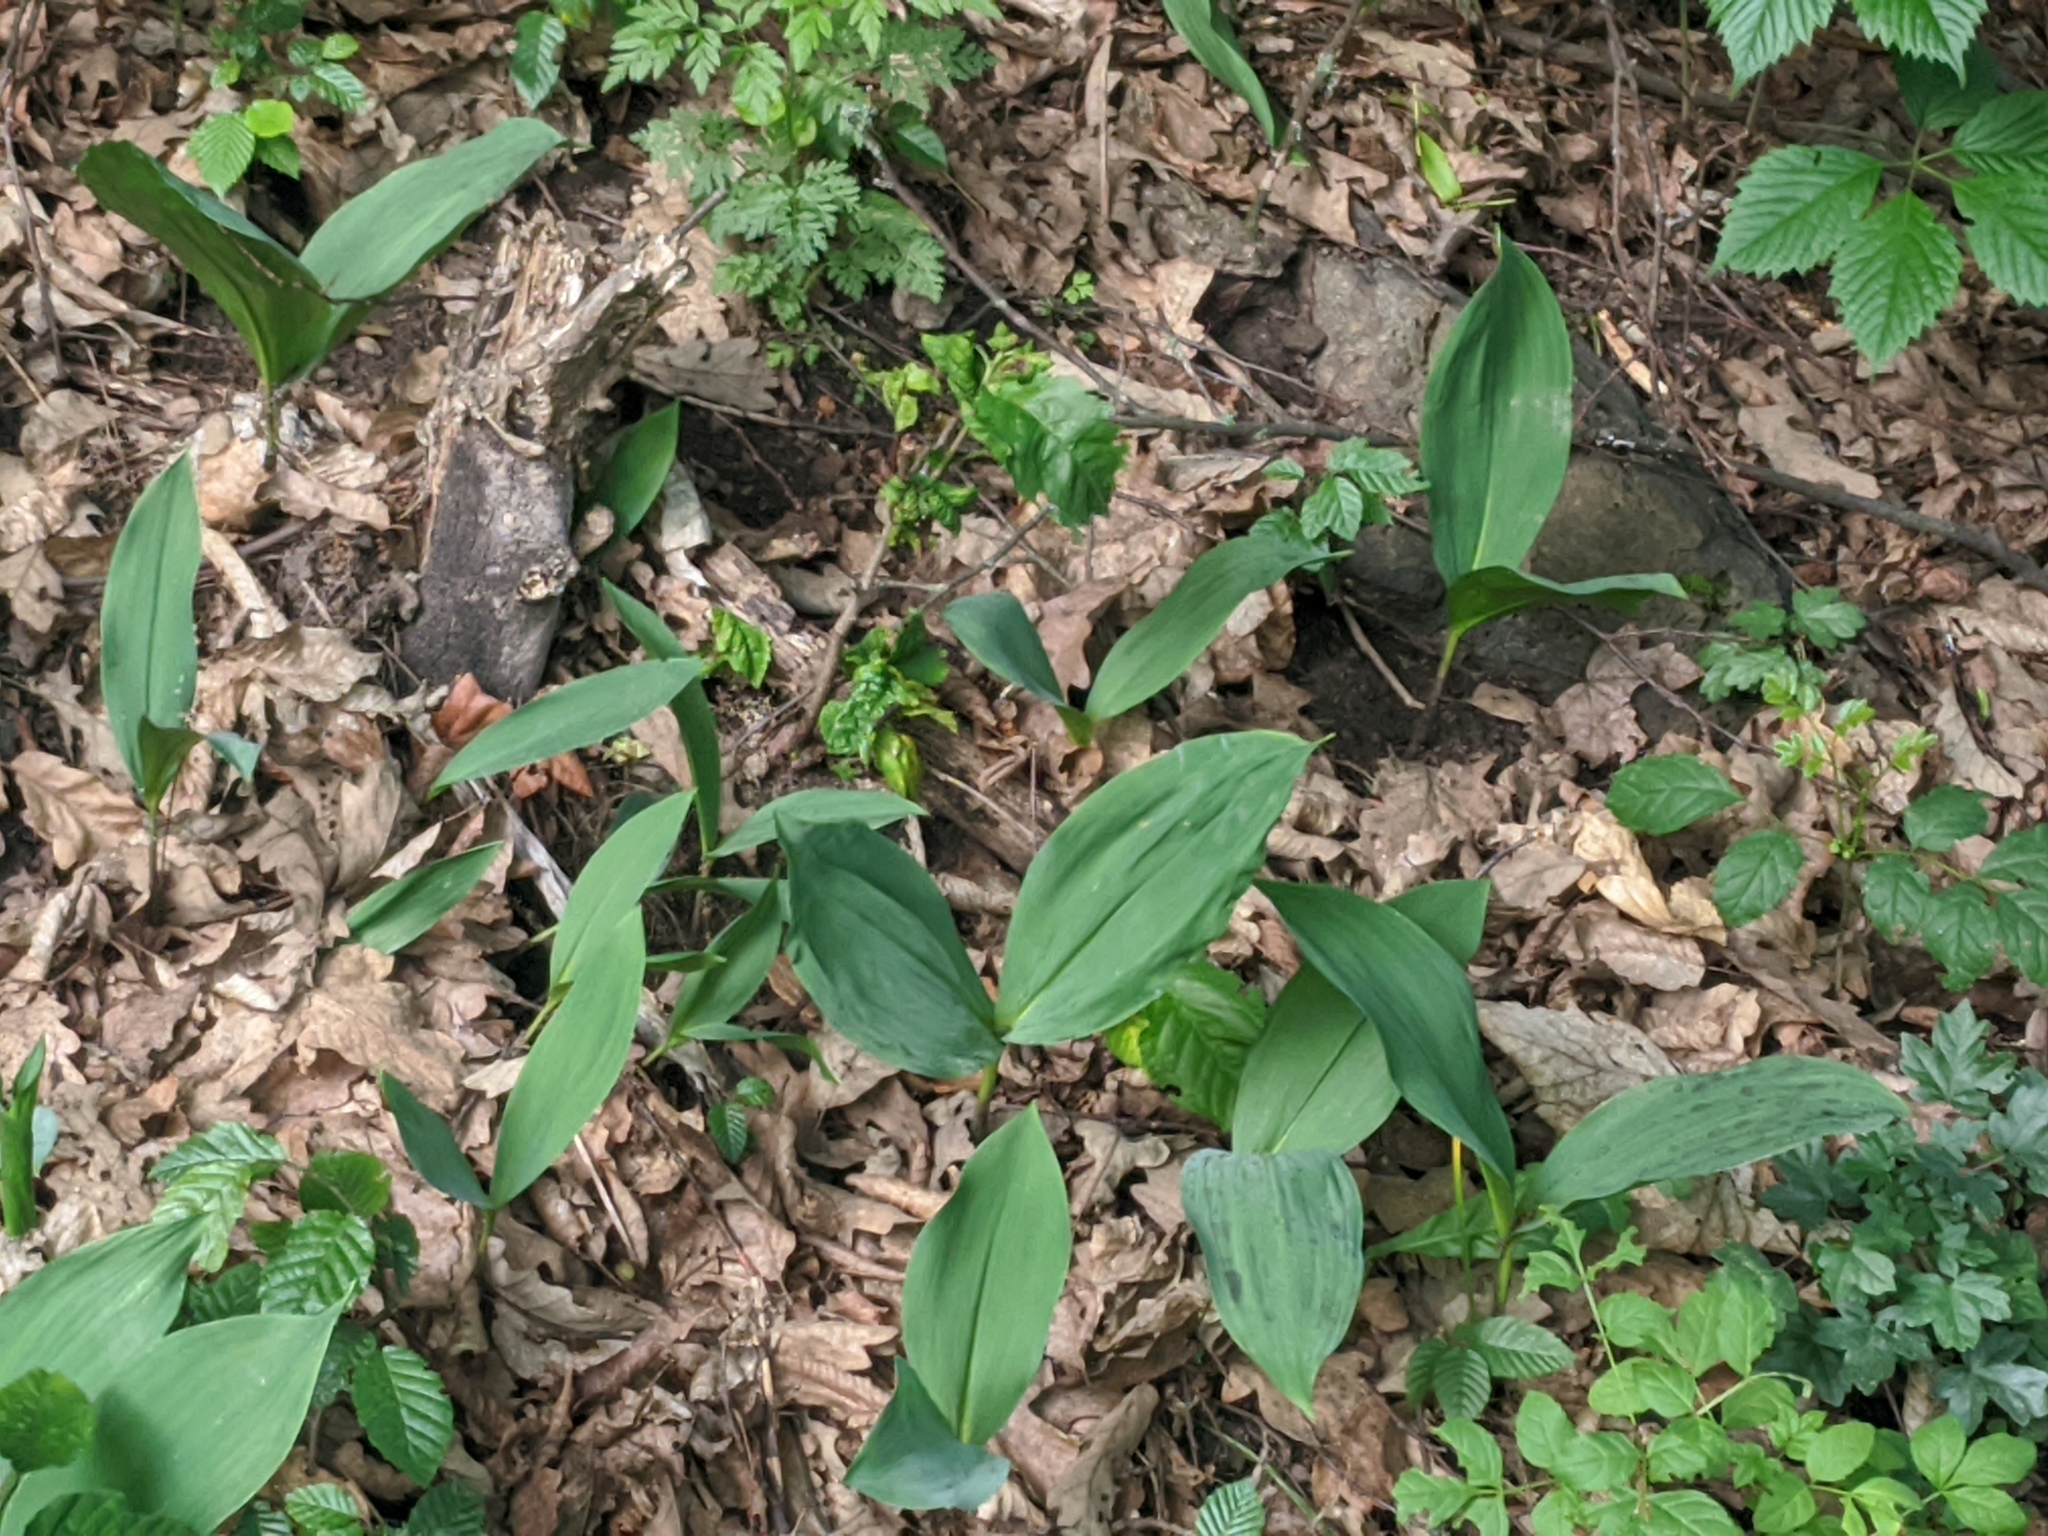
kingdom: Plantae
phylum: Tracheophyta
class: Liliopsida
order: Asparagales
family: Asparagaceae
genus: Convallaria
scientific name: Convallaria majalis
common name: Lily-of-the-valley
